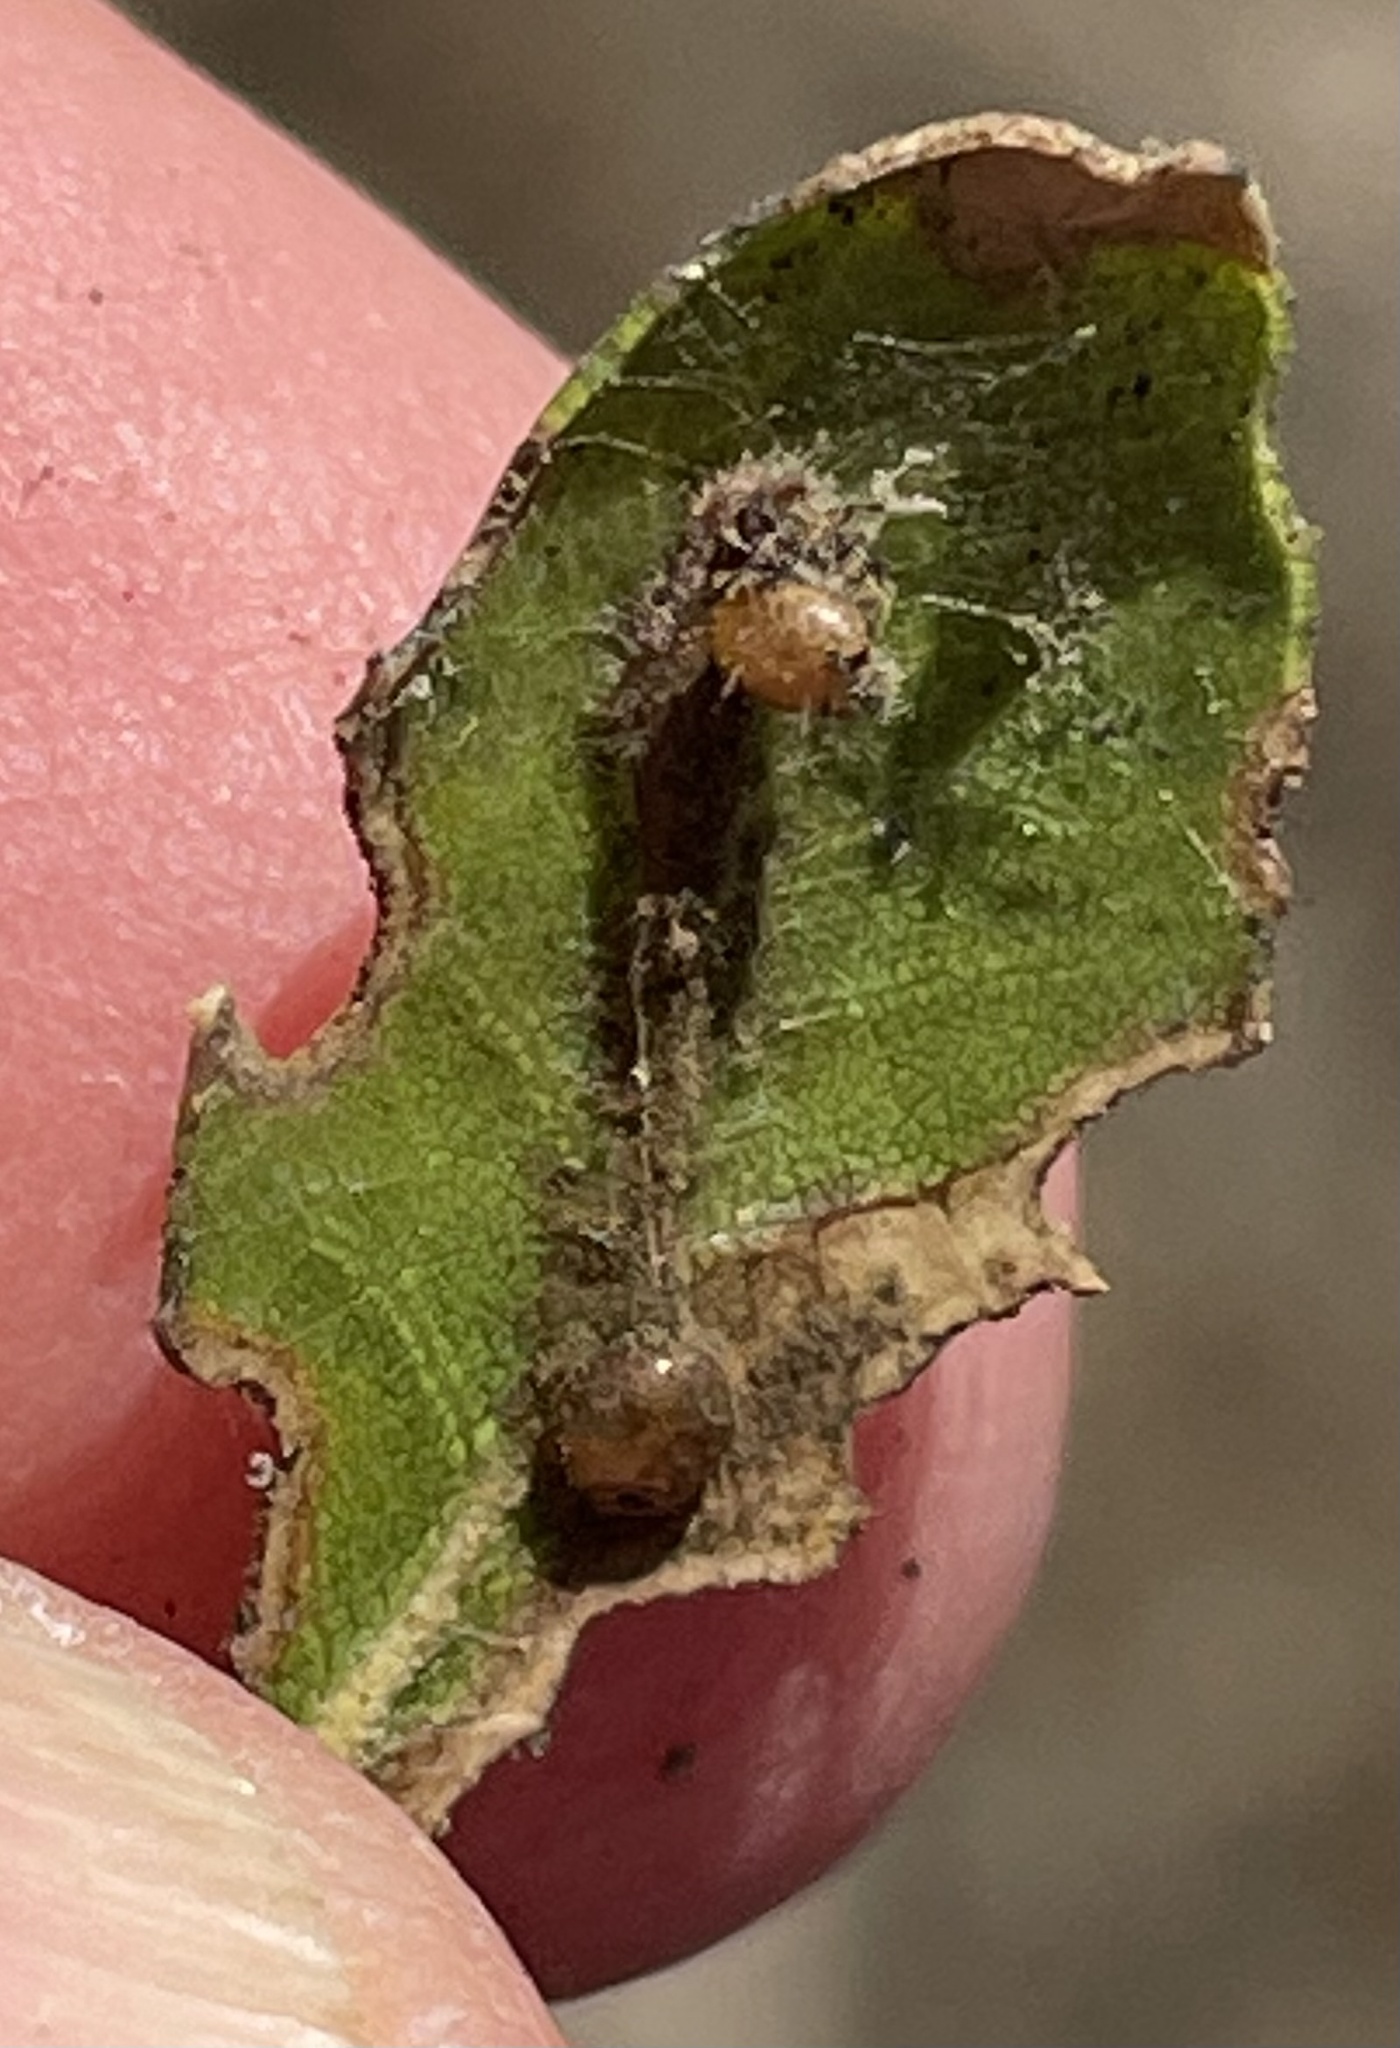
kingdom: Animalia
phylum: Arthropoda
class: Insecta
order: Lepidoptera
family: Notodontidae
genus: Phryganidia
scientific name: Phryganidia californica
